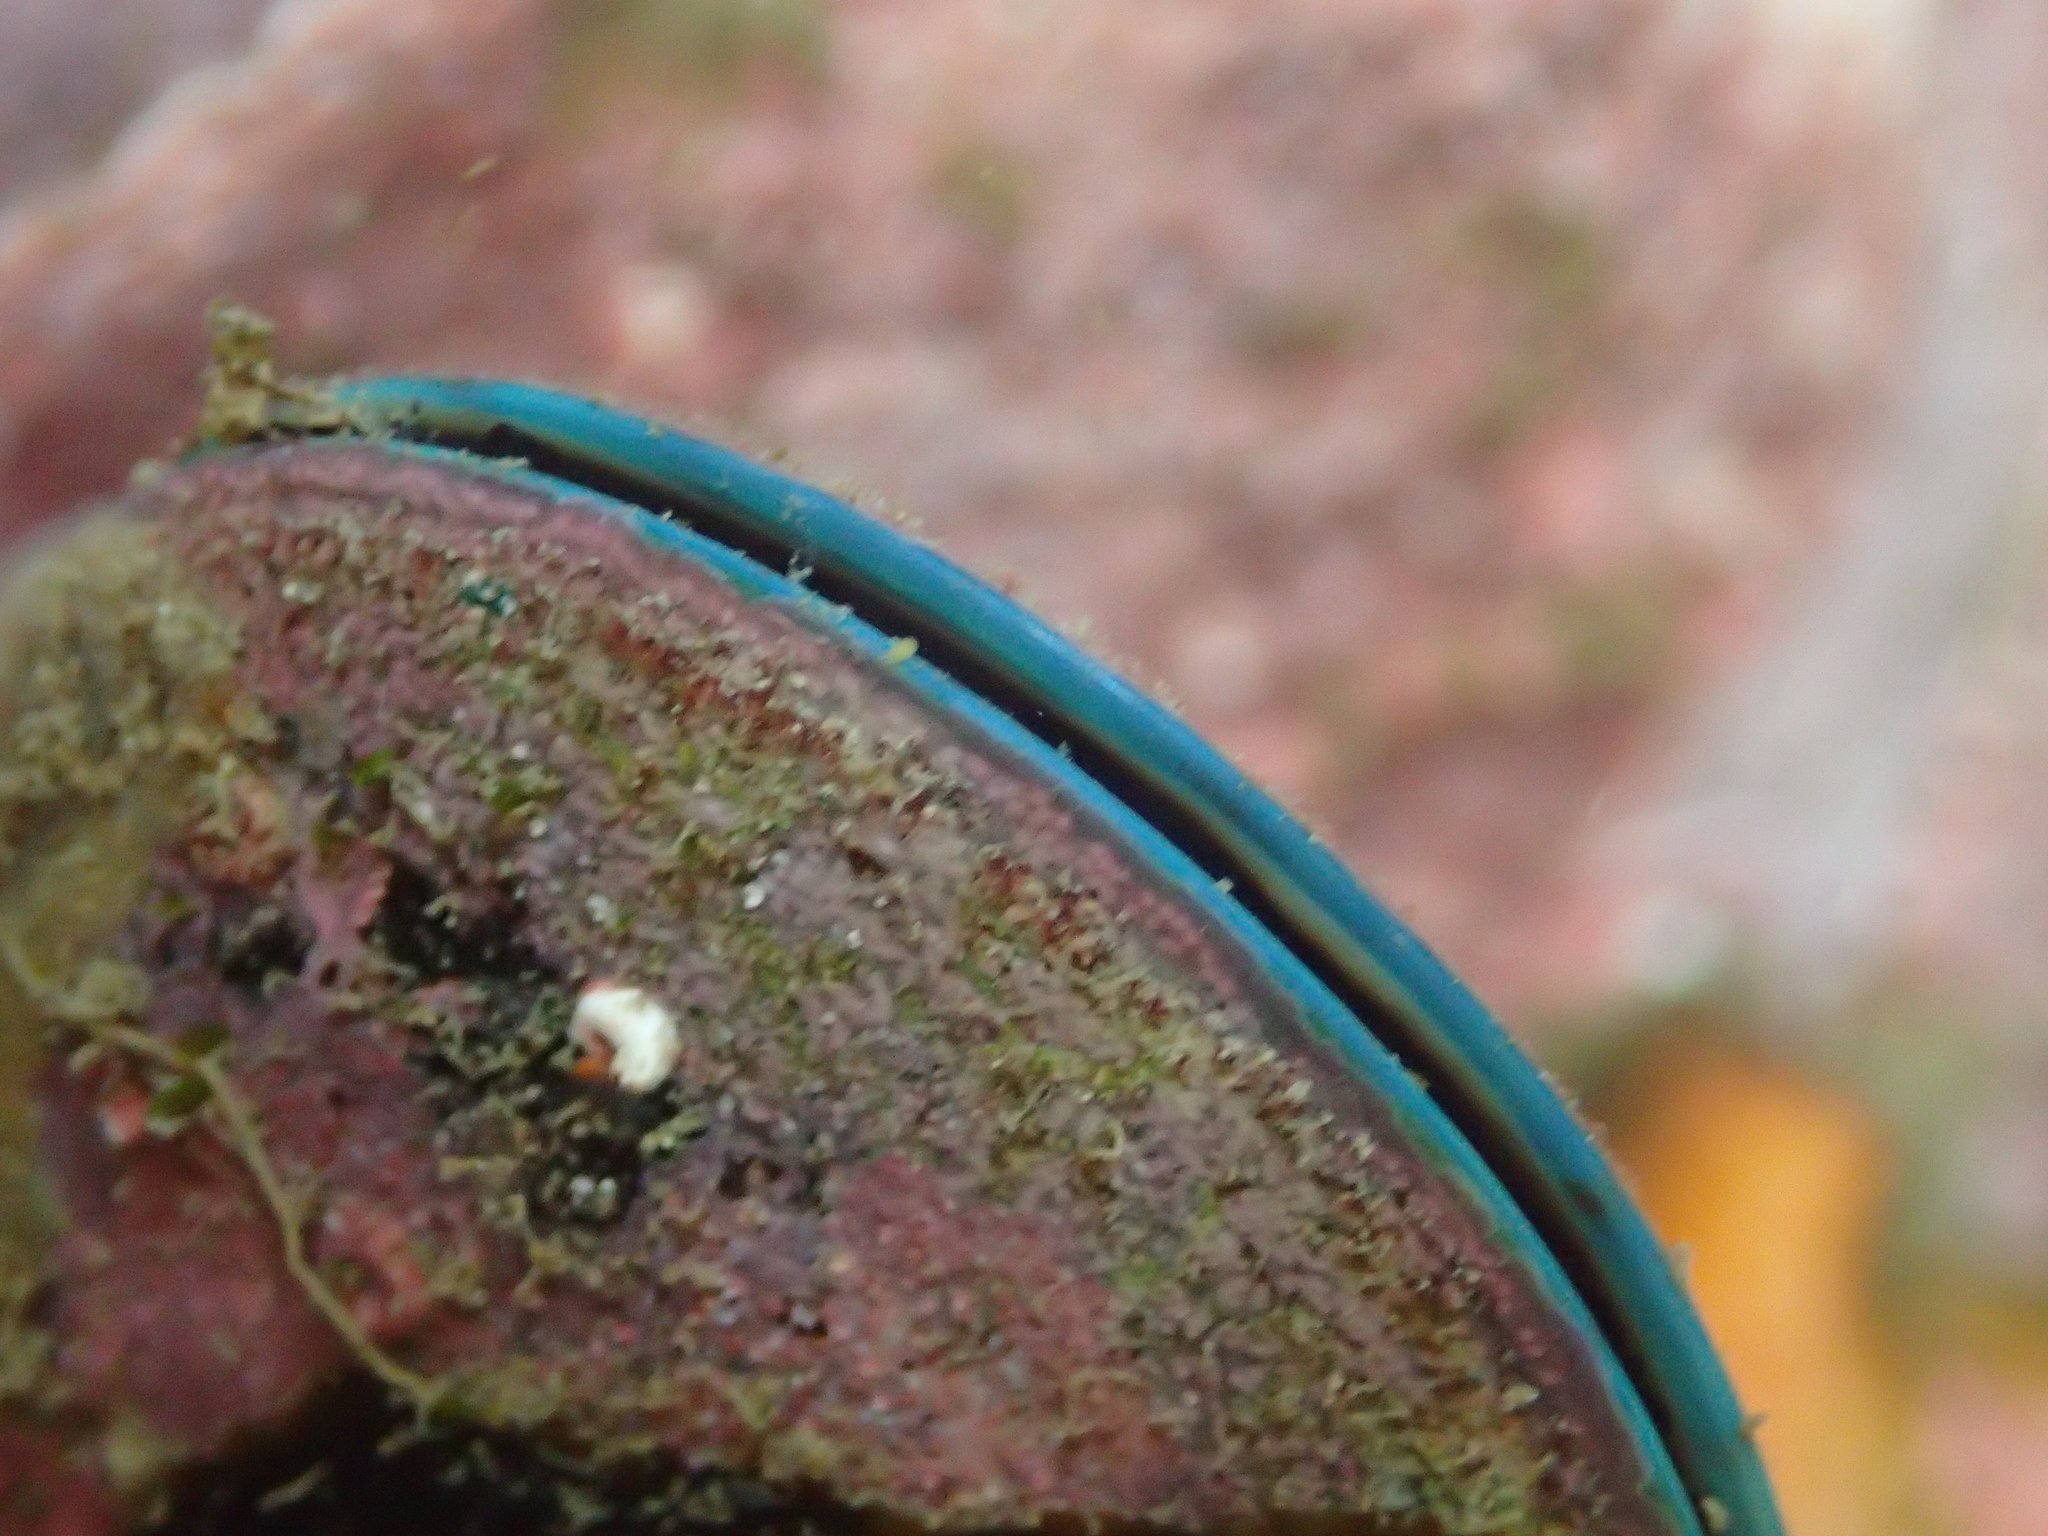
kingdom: Animalia
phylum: Mollusca
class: Bivalvia
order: Mytilida
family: Mytilidae
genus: Perna
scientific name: Perna canaliculus
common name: New zealand greenshelltm
